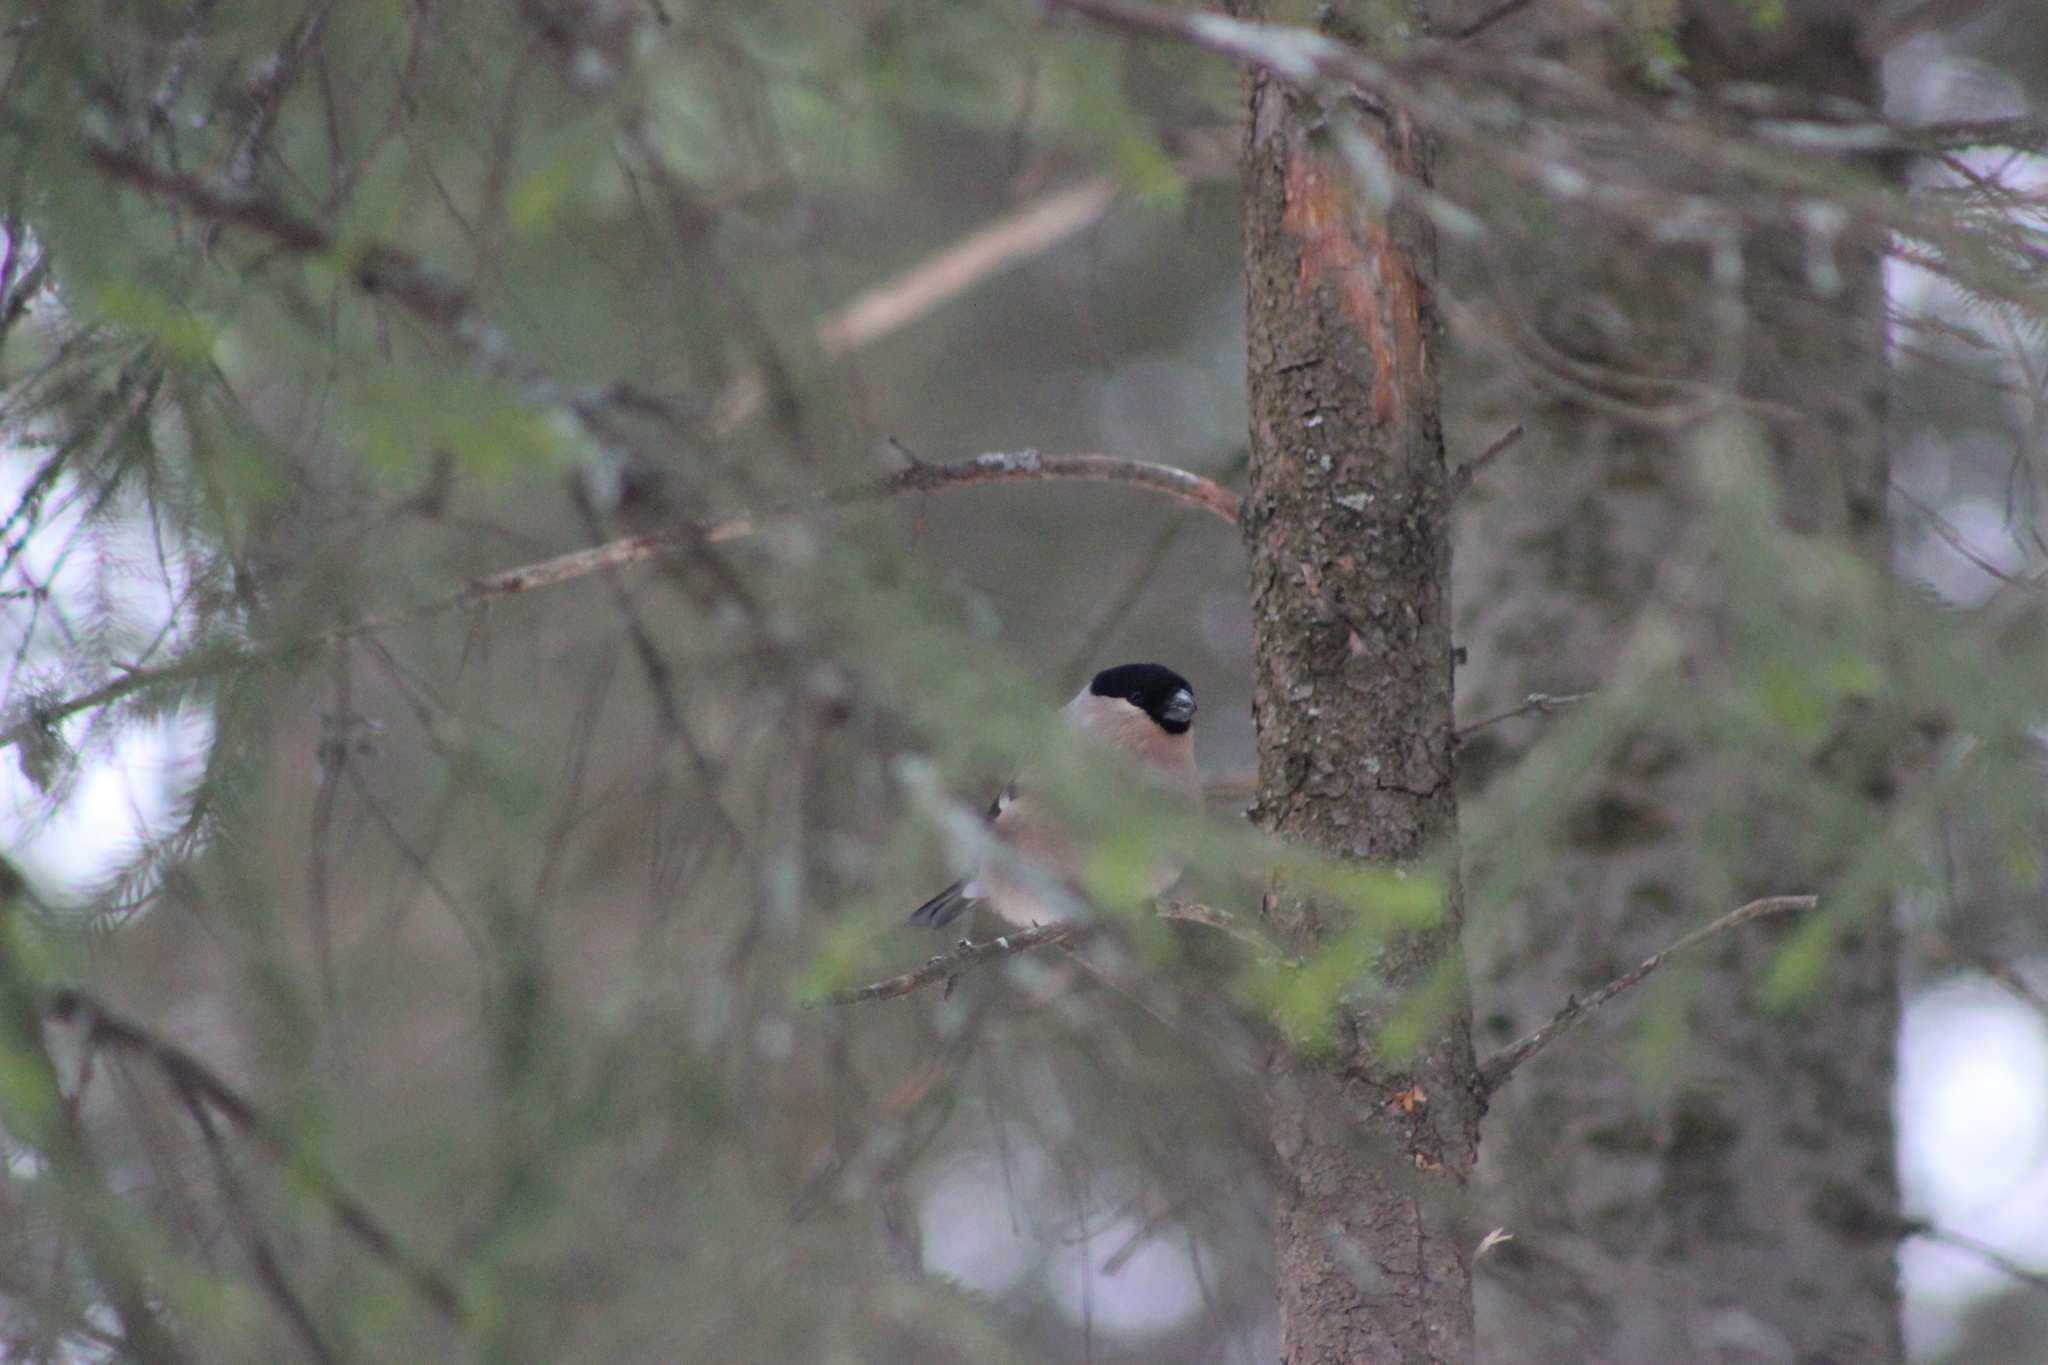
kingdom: Animalia
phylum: Chordata
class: Aves
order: Passeriformes
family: Fringillidae
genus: Pyrrhula
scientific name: Pyrrhula pyrrhula
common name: Eurasian bullfinch
